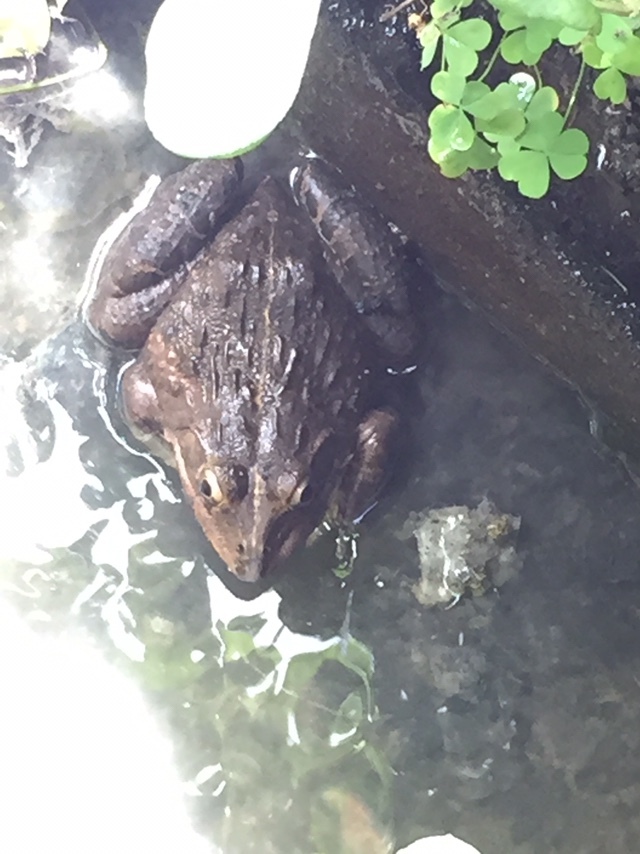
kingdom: Animalia
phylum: Chordata
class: Amphibia
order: Anura
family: Dicroglossidae
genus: Hoplobatrachus
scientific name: Hoplobatrachus tigerinus
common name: Indian bullfrog
